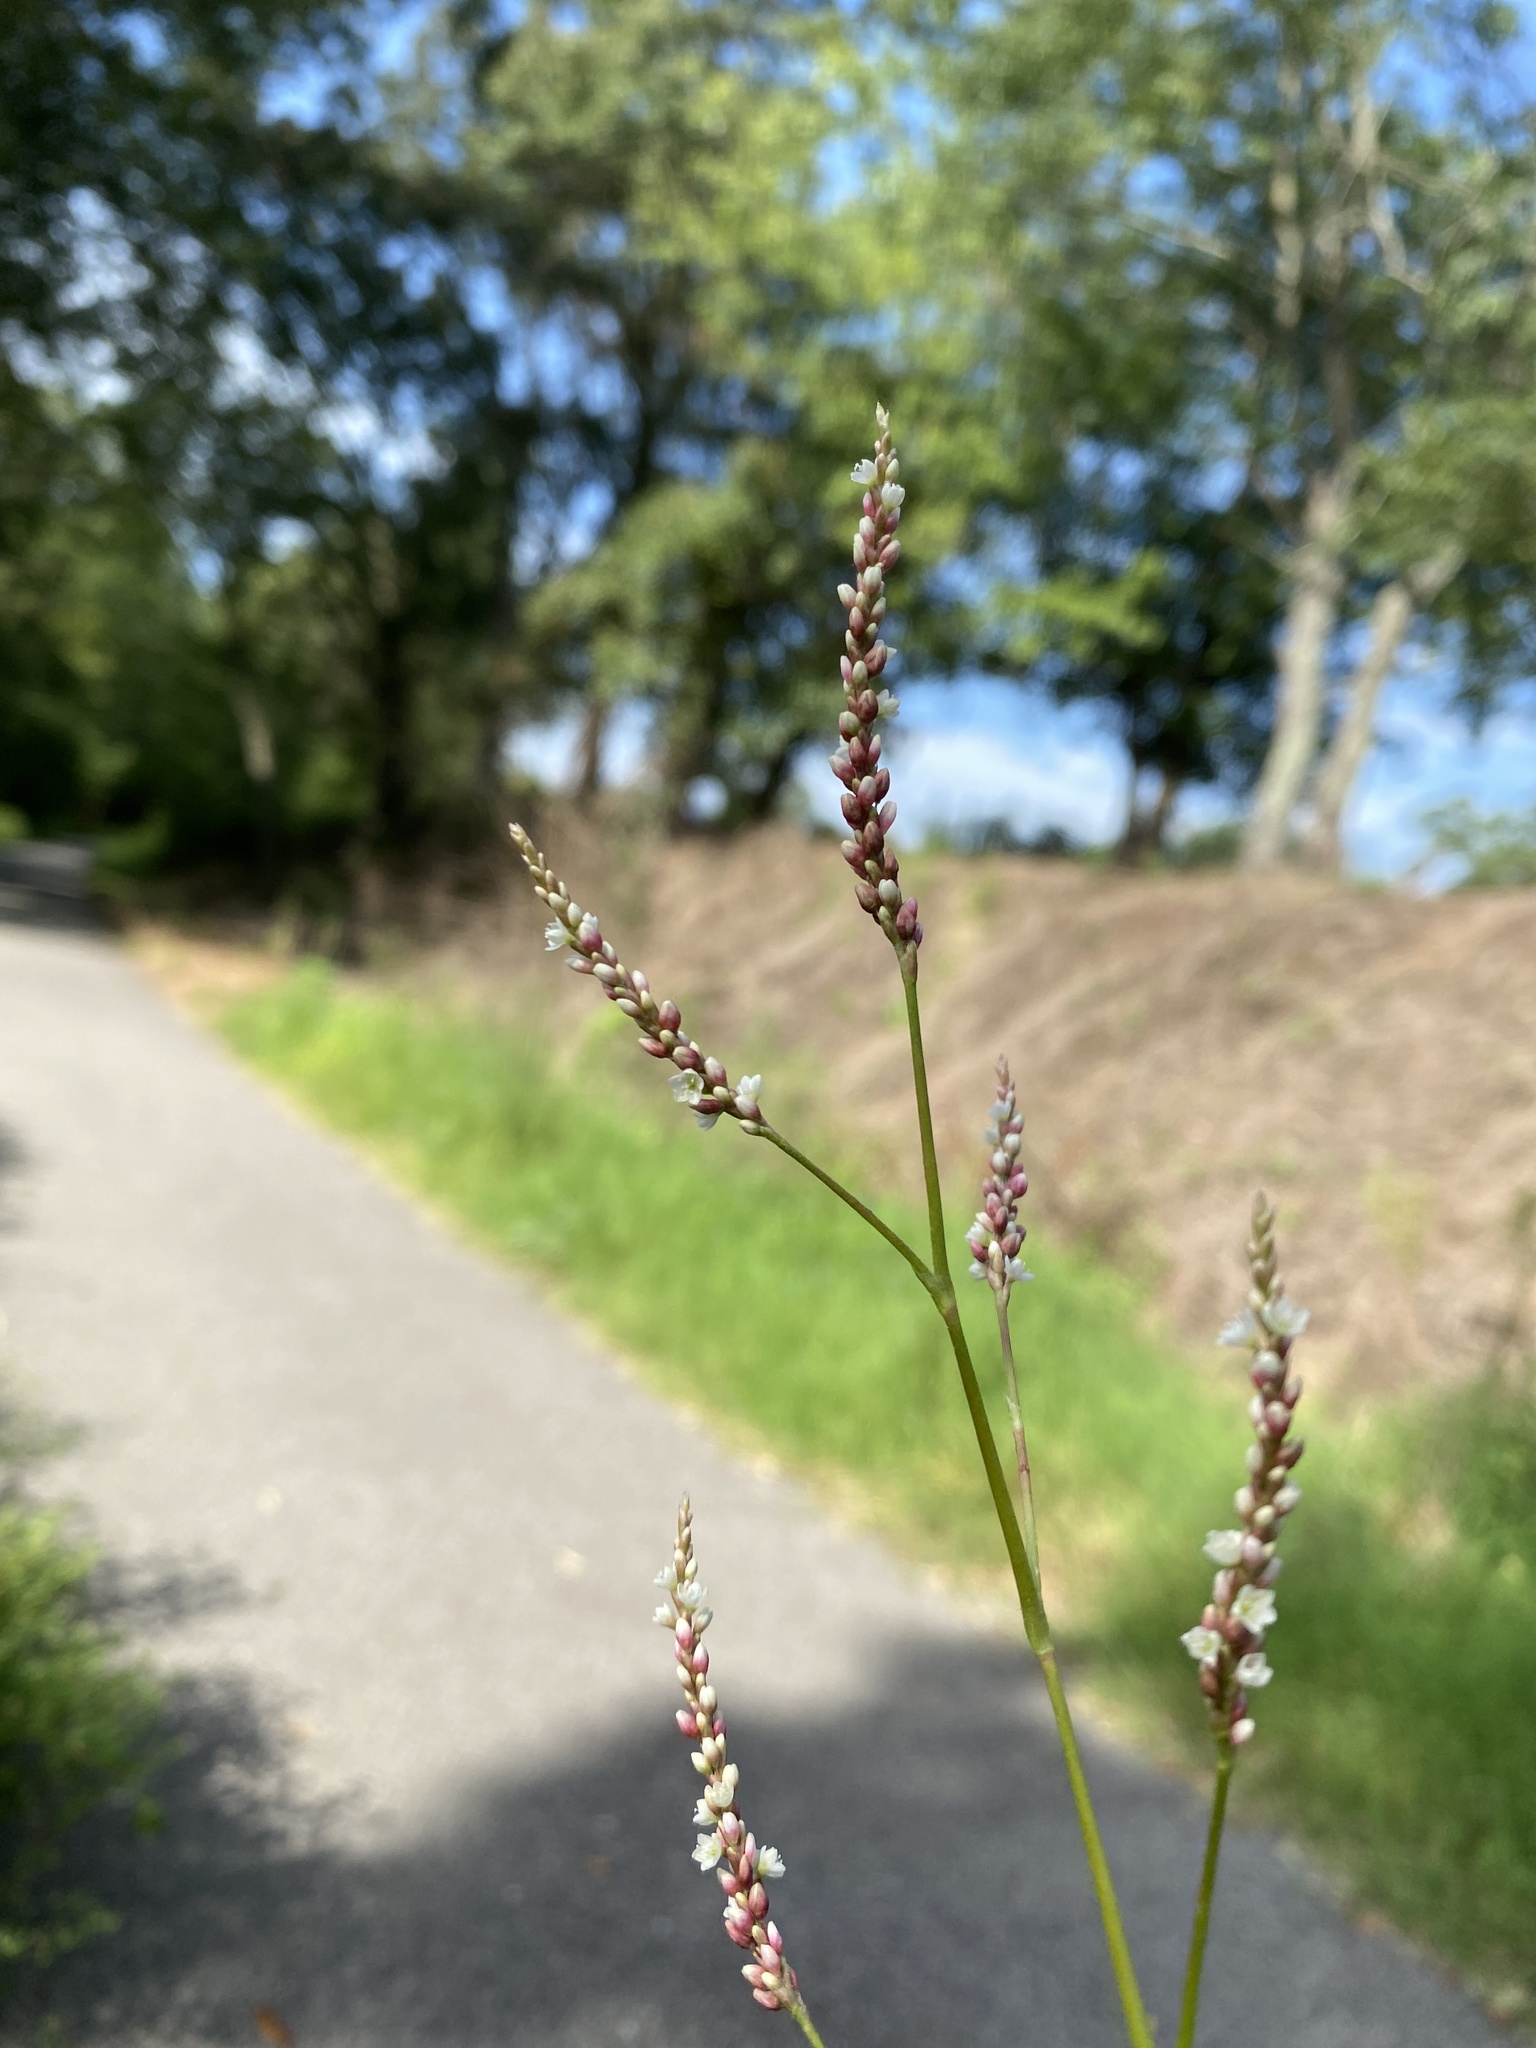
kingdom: Plantae
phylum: Tracheophyta
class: Magnoliopsida
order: Caryophyllales
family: Polygonaceae
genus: Persicaria
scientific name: Persicaria hydropiperoides
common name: Swamp smartweed
